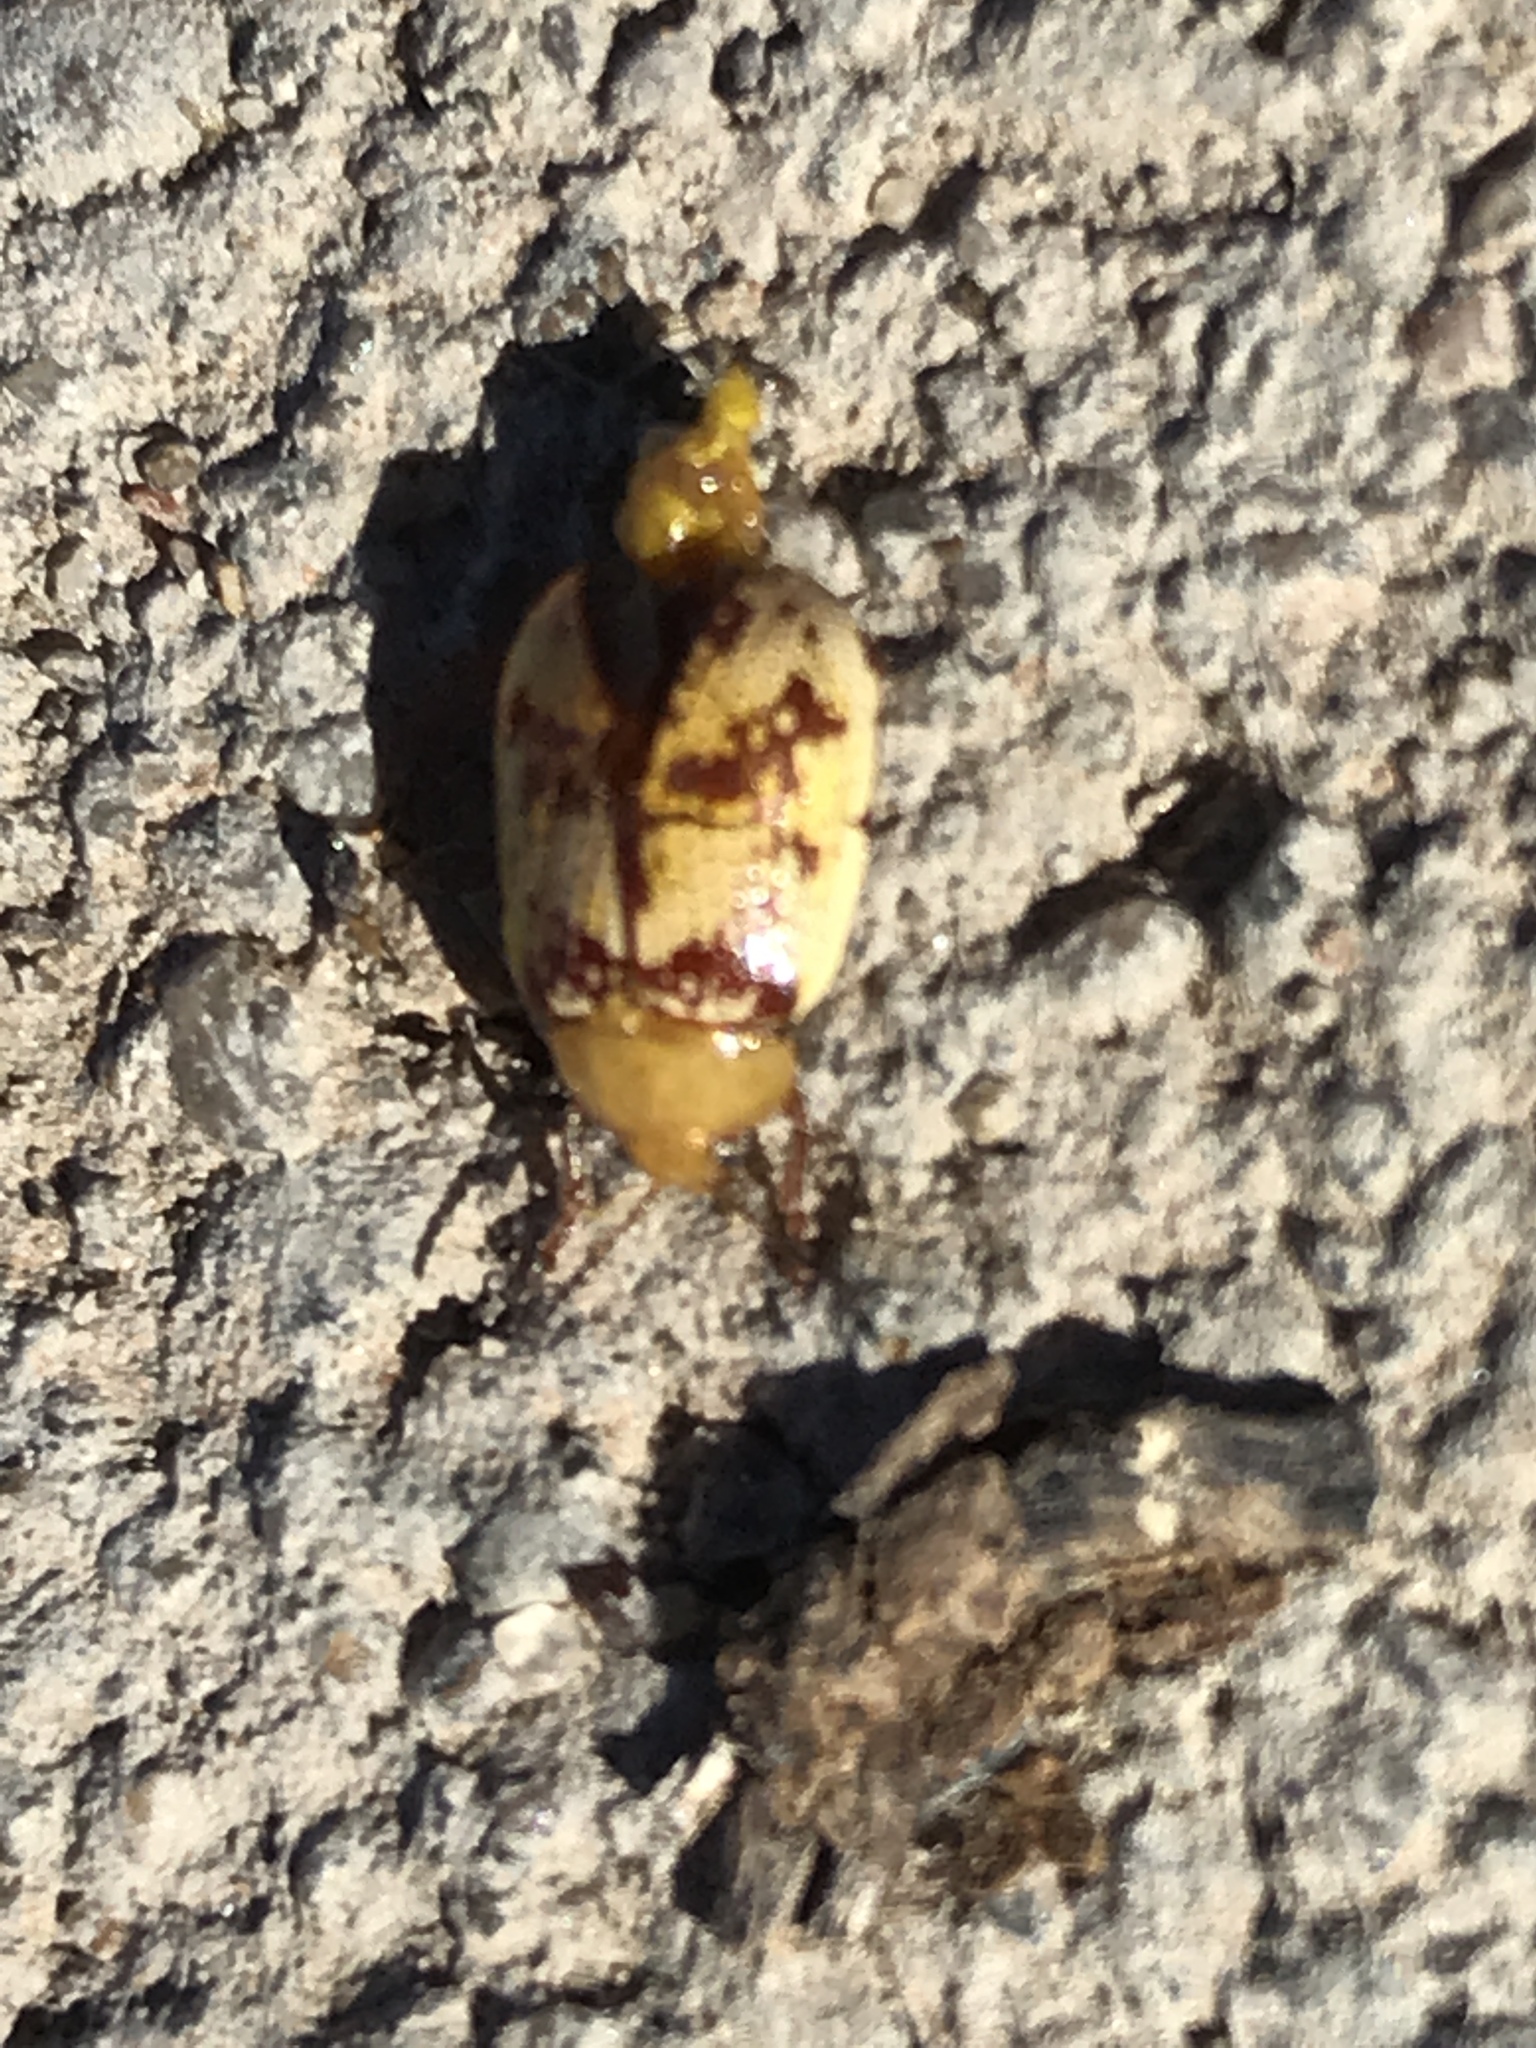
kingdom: Animalia
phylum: Arthropoda
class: Insecta
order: Coleoptera
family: Chrysomelidae
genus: Blepharida
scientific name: Blepharida rhois
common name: Sumac flea beetle
